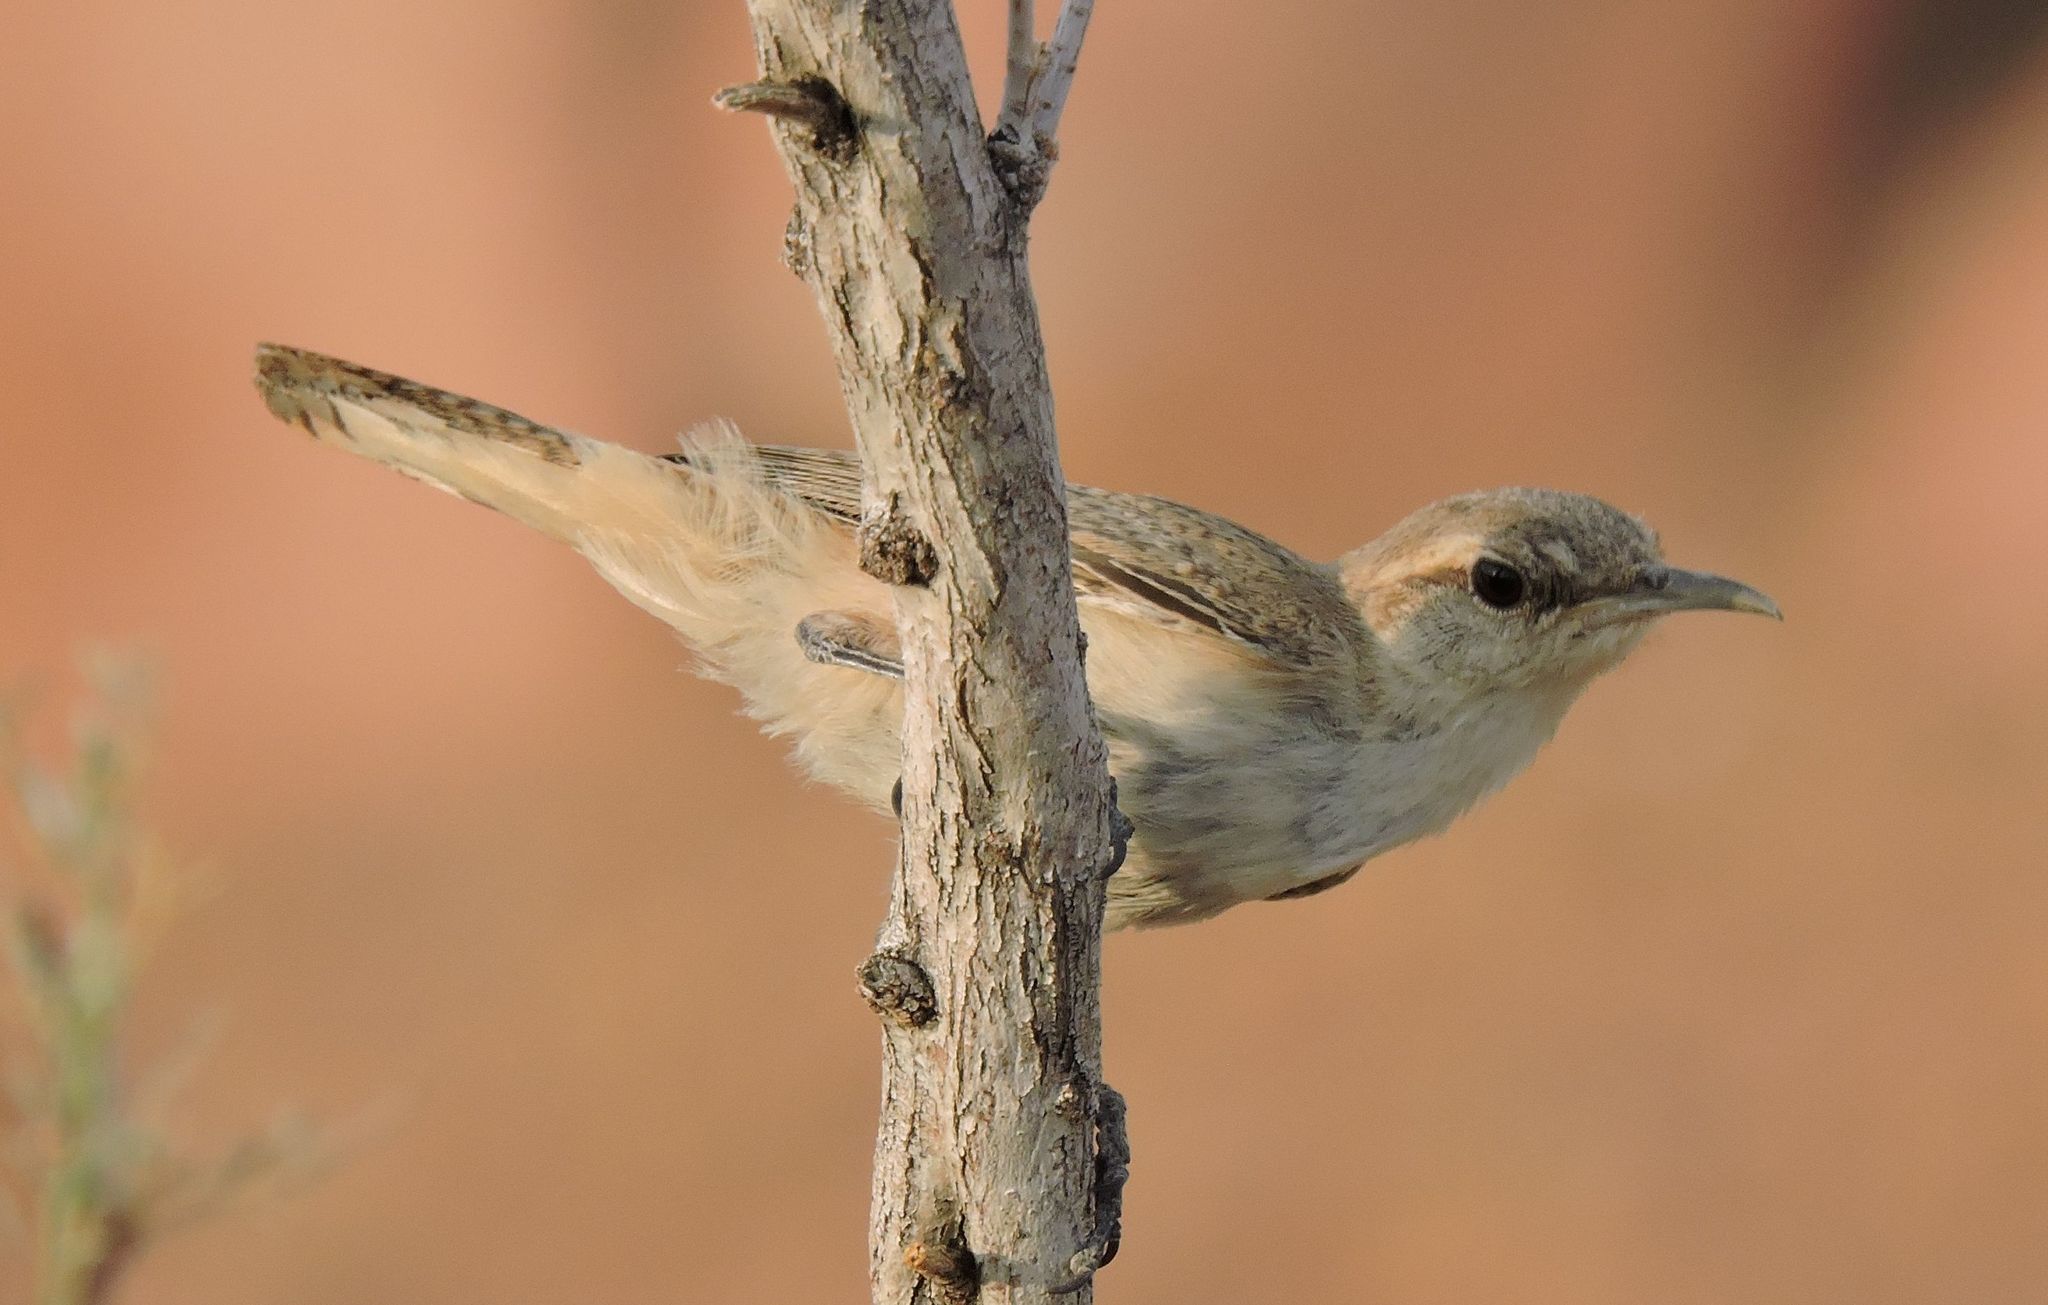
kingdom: Animalia
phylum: Chordata
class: Aves
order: Passeriformes
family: Troglodytidae
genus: Salpinctes
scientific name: Salpinctes obsoletus
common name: Rock wren
